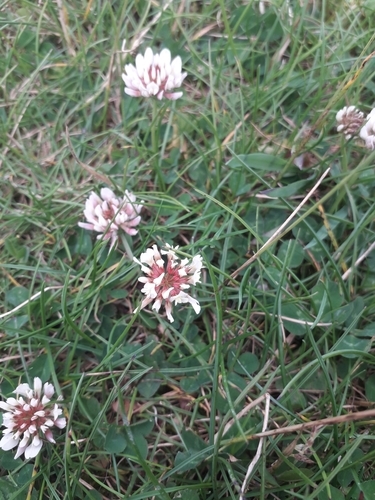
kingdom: Plantae
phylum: Tracheophyta
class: Magnoliopsida
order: Fabales
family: Fabaceae
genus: Trifolium
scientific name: Trifolium repens
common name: White clover
